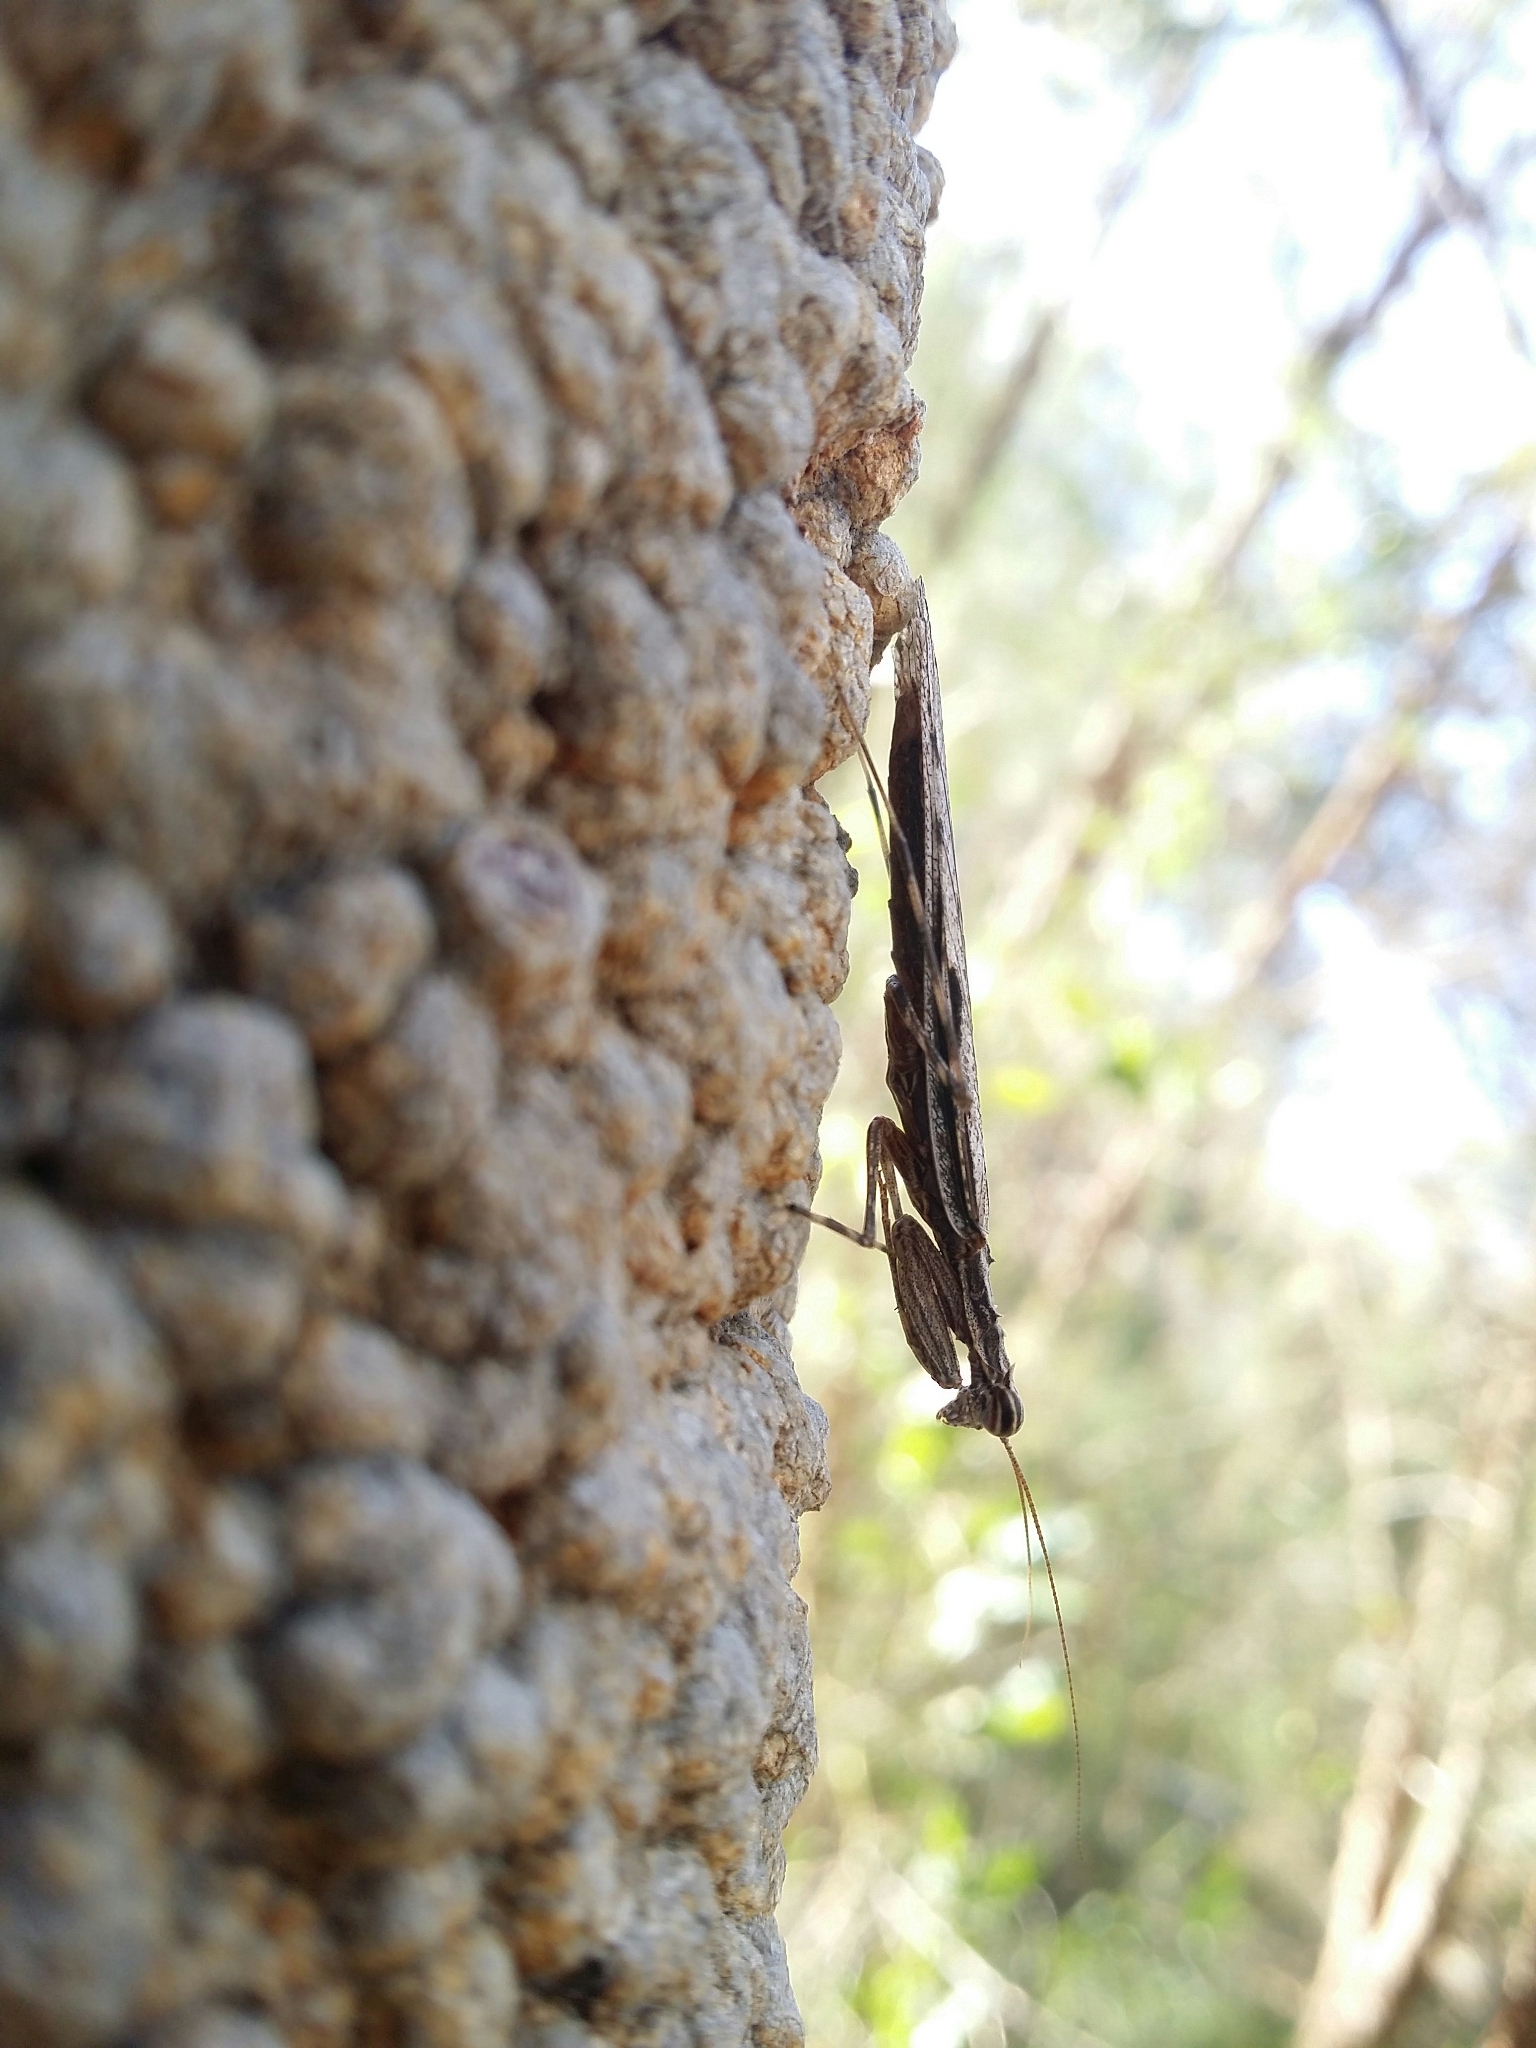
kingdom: Animalia
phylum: Arthropoda
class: Insecta
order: Mantodea
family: Nanomantidae
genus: Gyromantis
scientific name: Gyromantis kraussii
